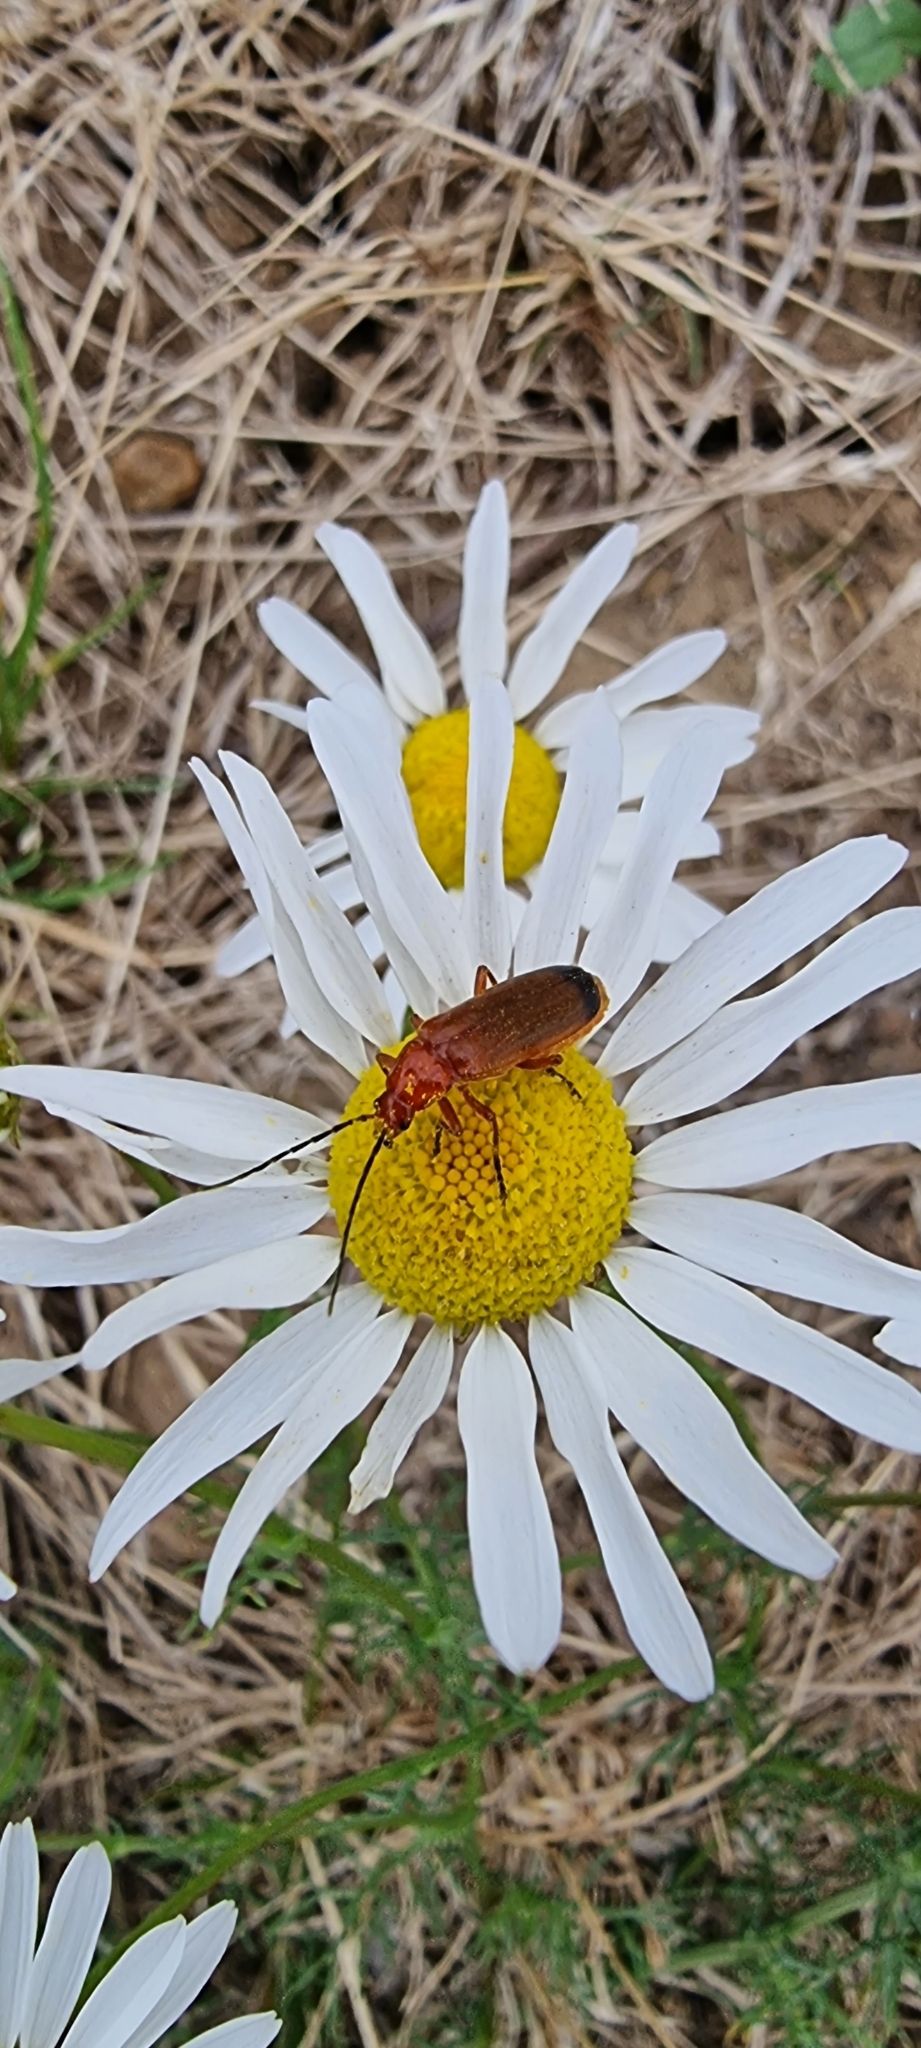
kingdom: Animalia
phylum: Arthropoda
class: Insecta
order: Coleoptera
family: Cantharidae
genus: Rhagonycha
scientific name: Rhagonycha fulva
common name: Common red soldier beetle
